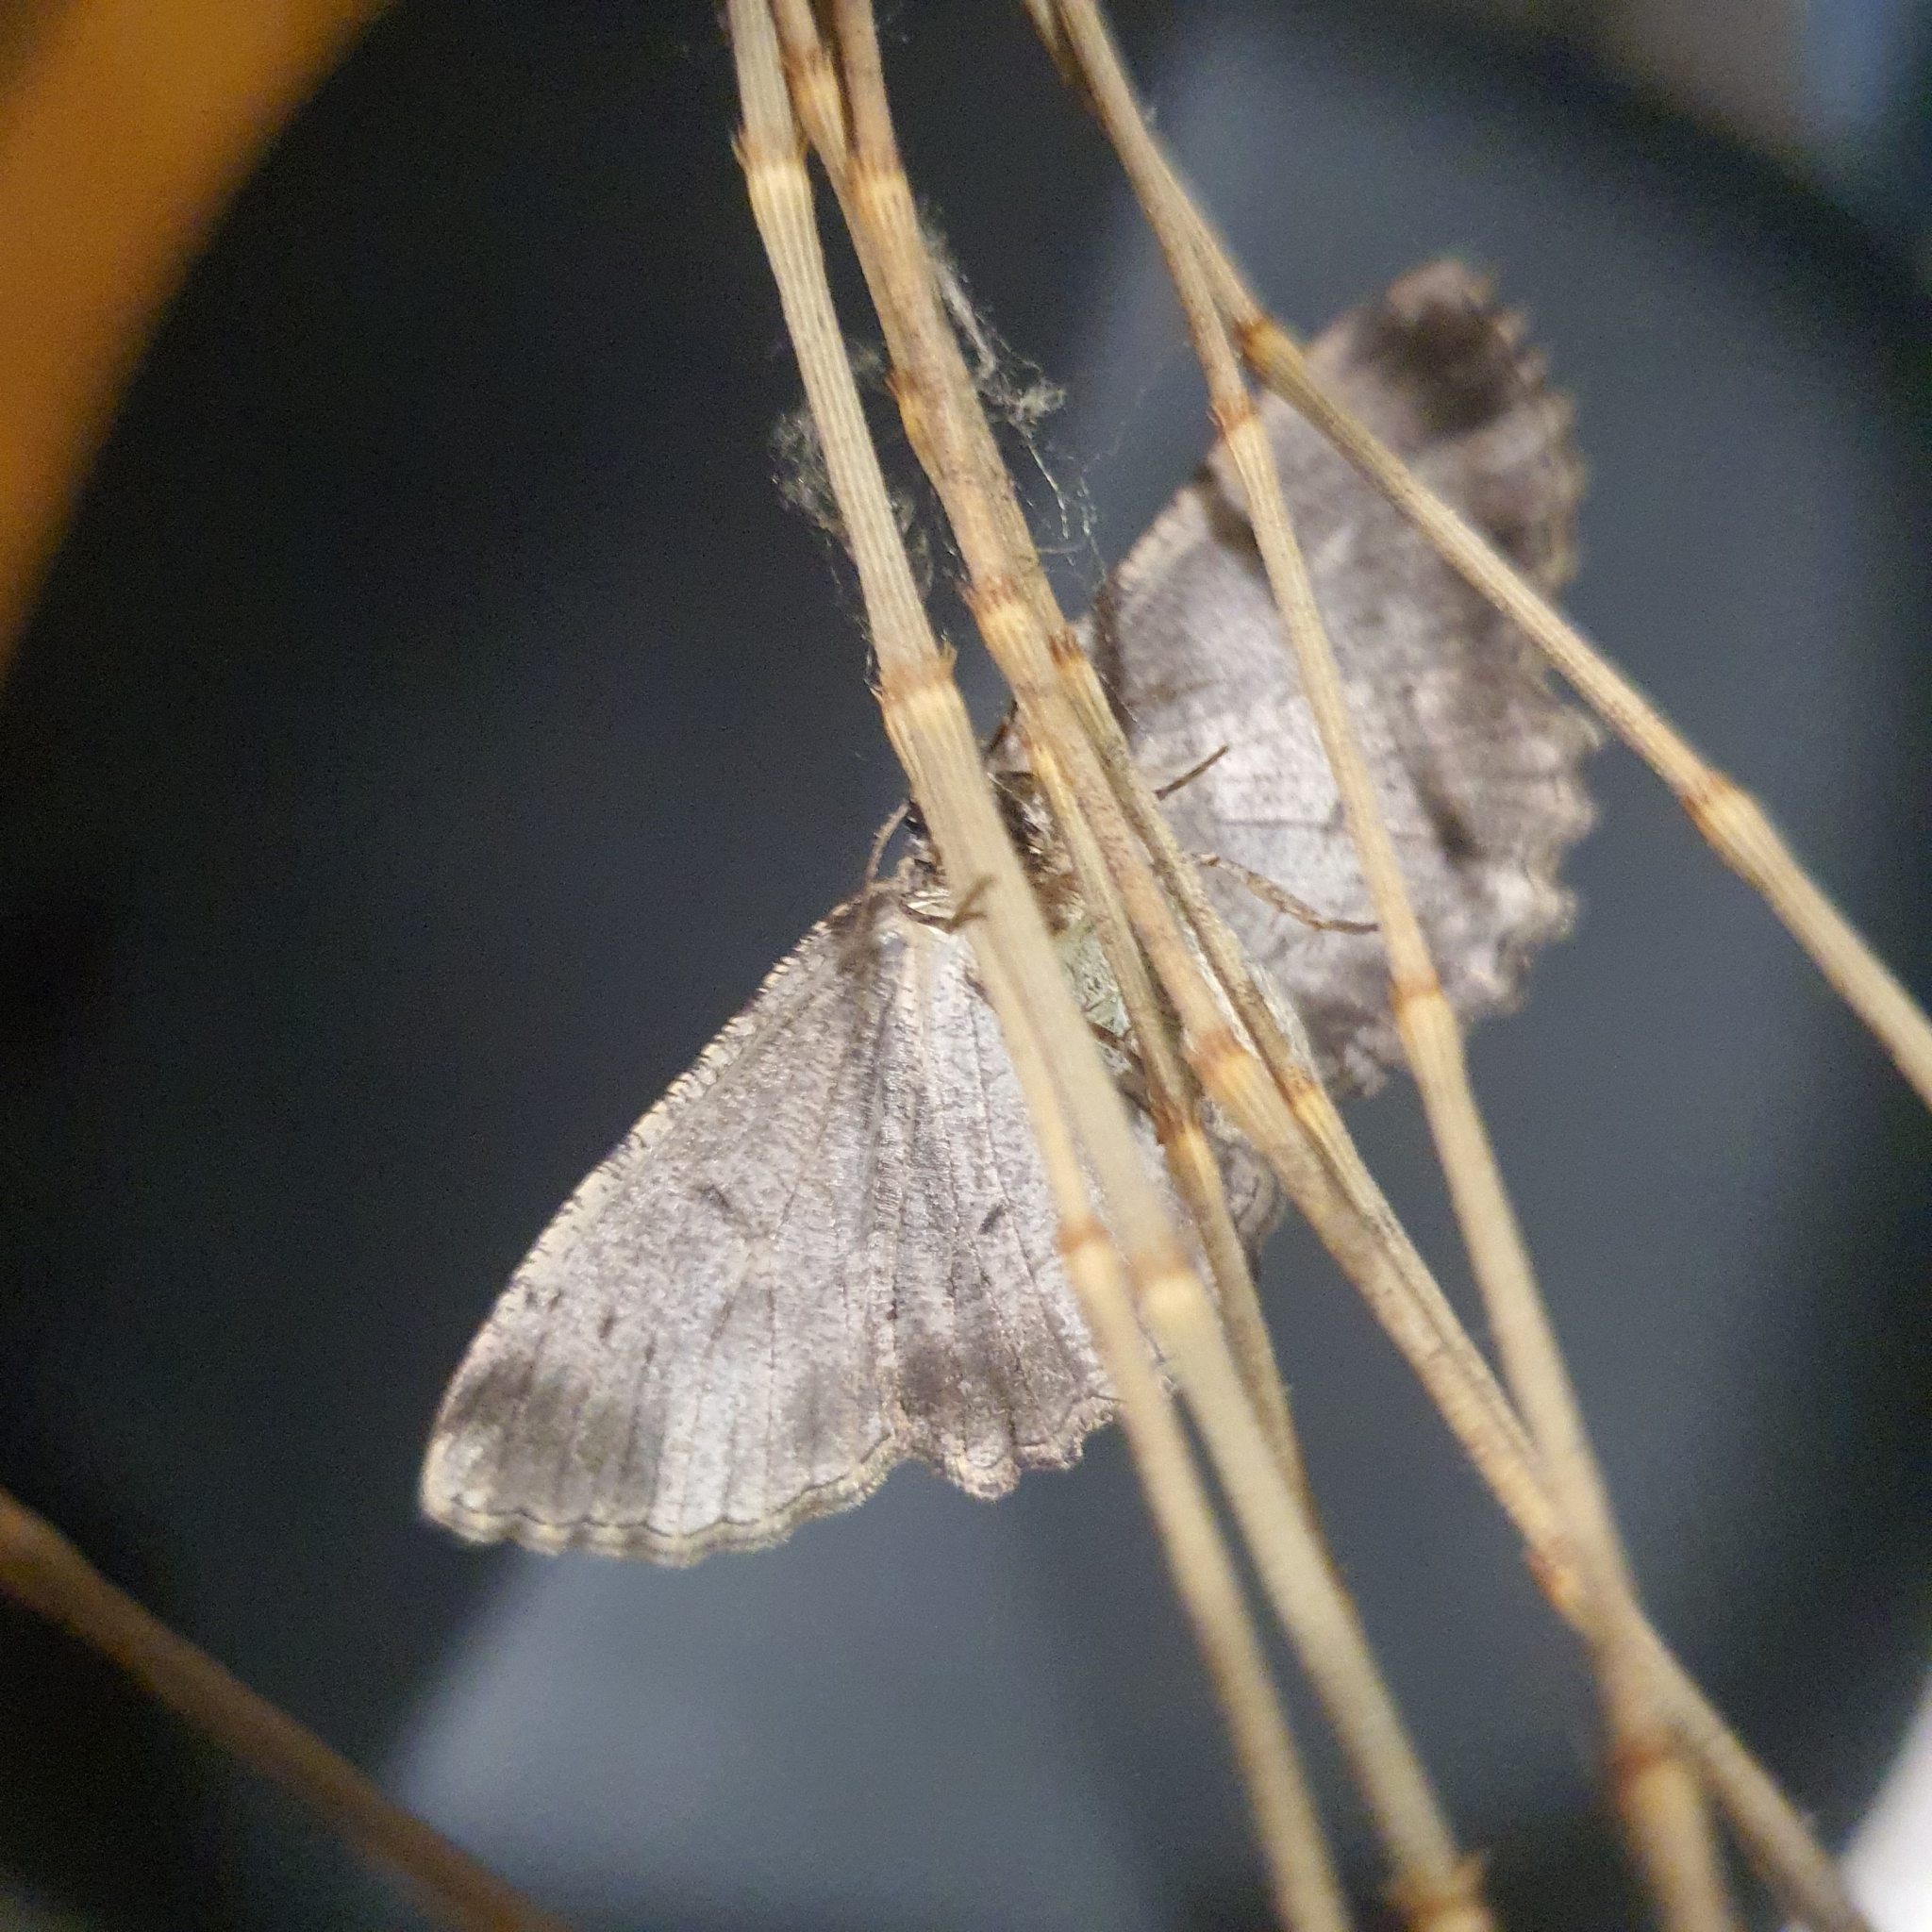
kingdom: Animalia
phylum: Arthropoda
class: Insecta
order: Lepidoptera
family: Geometridae
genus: Ectropis
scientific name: Ectropis excursaria
